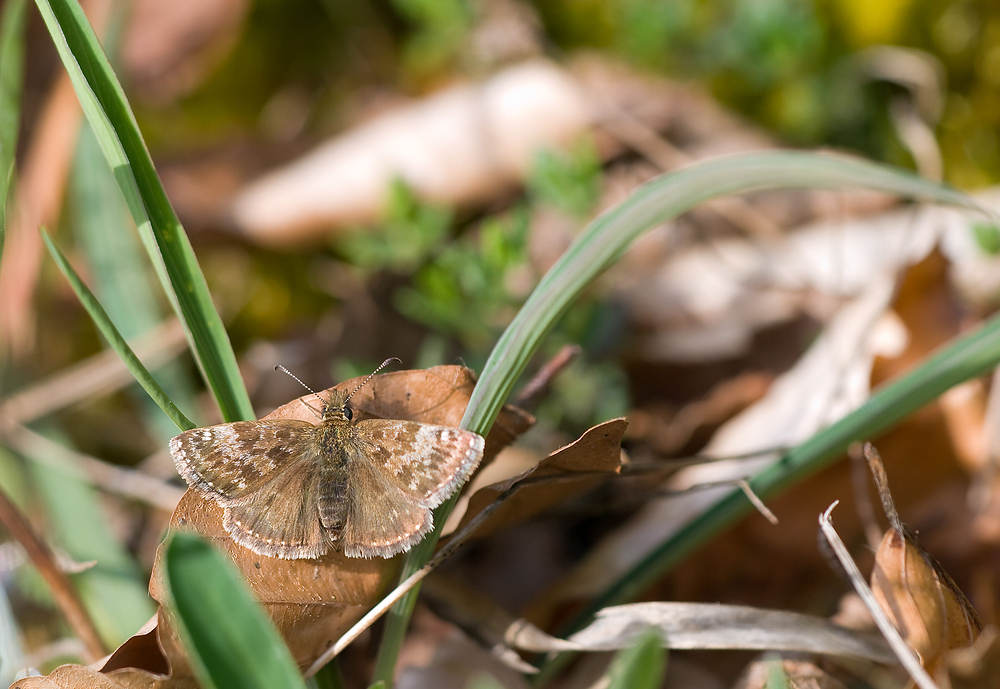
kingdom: Animalia
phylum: Arthropoda
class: Insecta
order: Lepidoptera
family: Hesperiidae
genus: Erynnis
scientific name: Erynnis tages
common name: Dingy skipper
